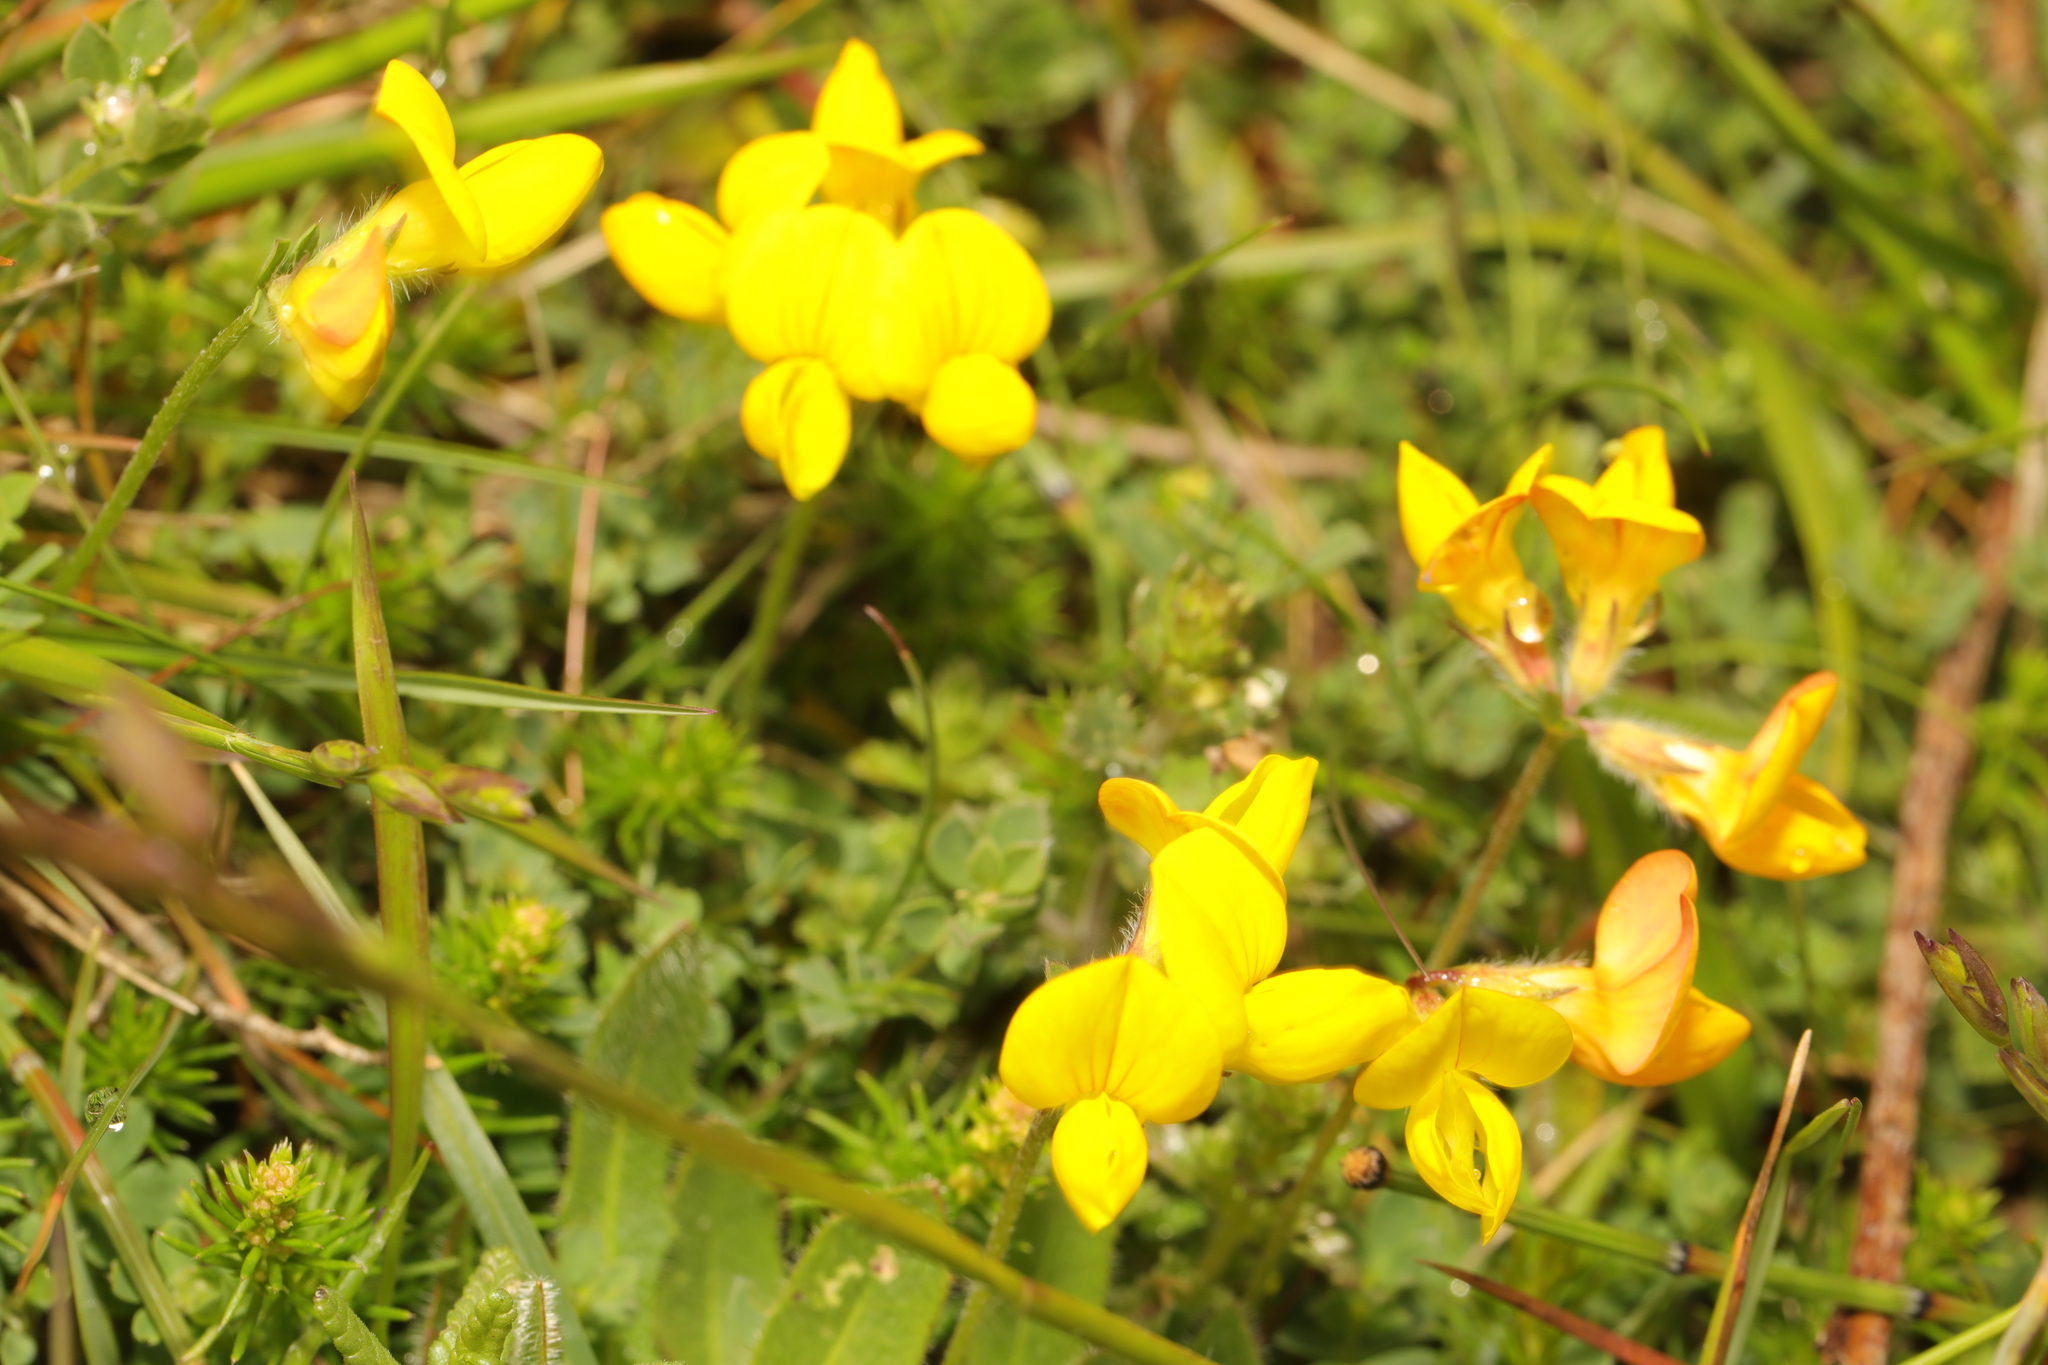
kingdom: Plantae
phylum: Tracheophyta
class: Magnoliopsida
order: Fabales
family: Fabaceae
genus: Lotus
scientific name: Lotus corniculatus
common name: Common bird's-foot-trefoil
